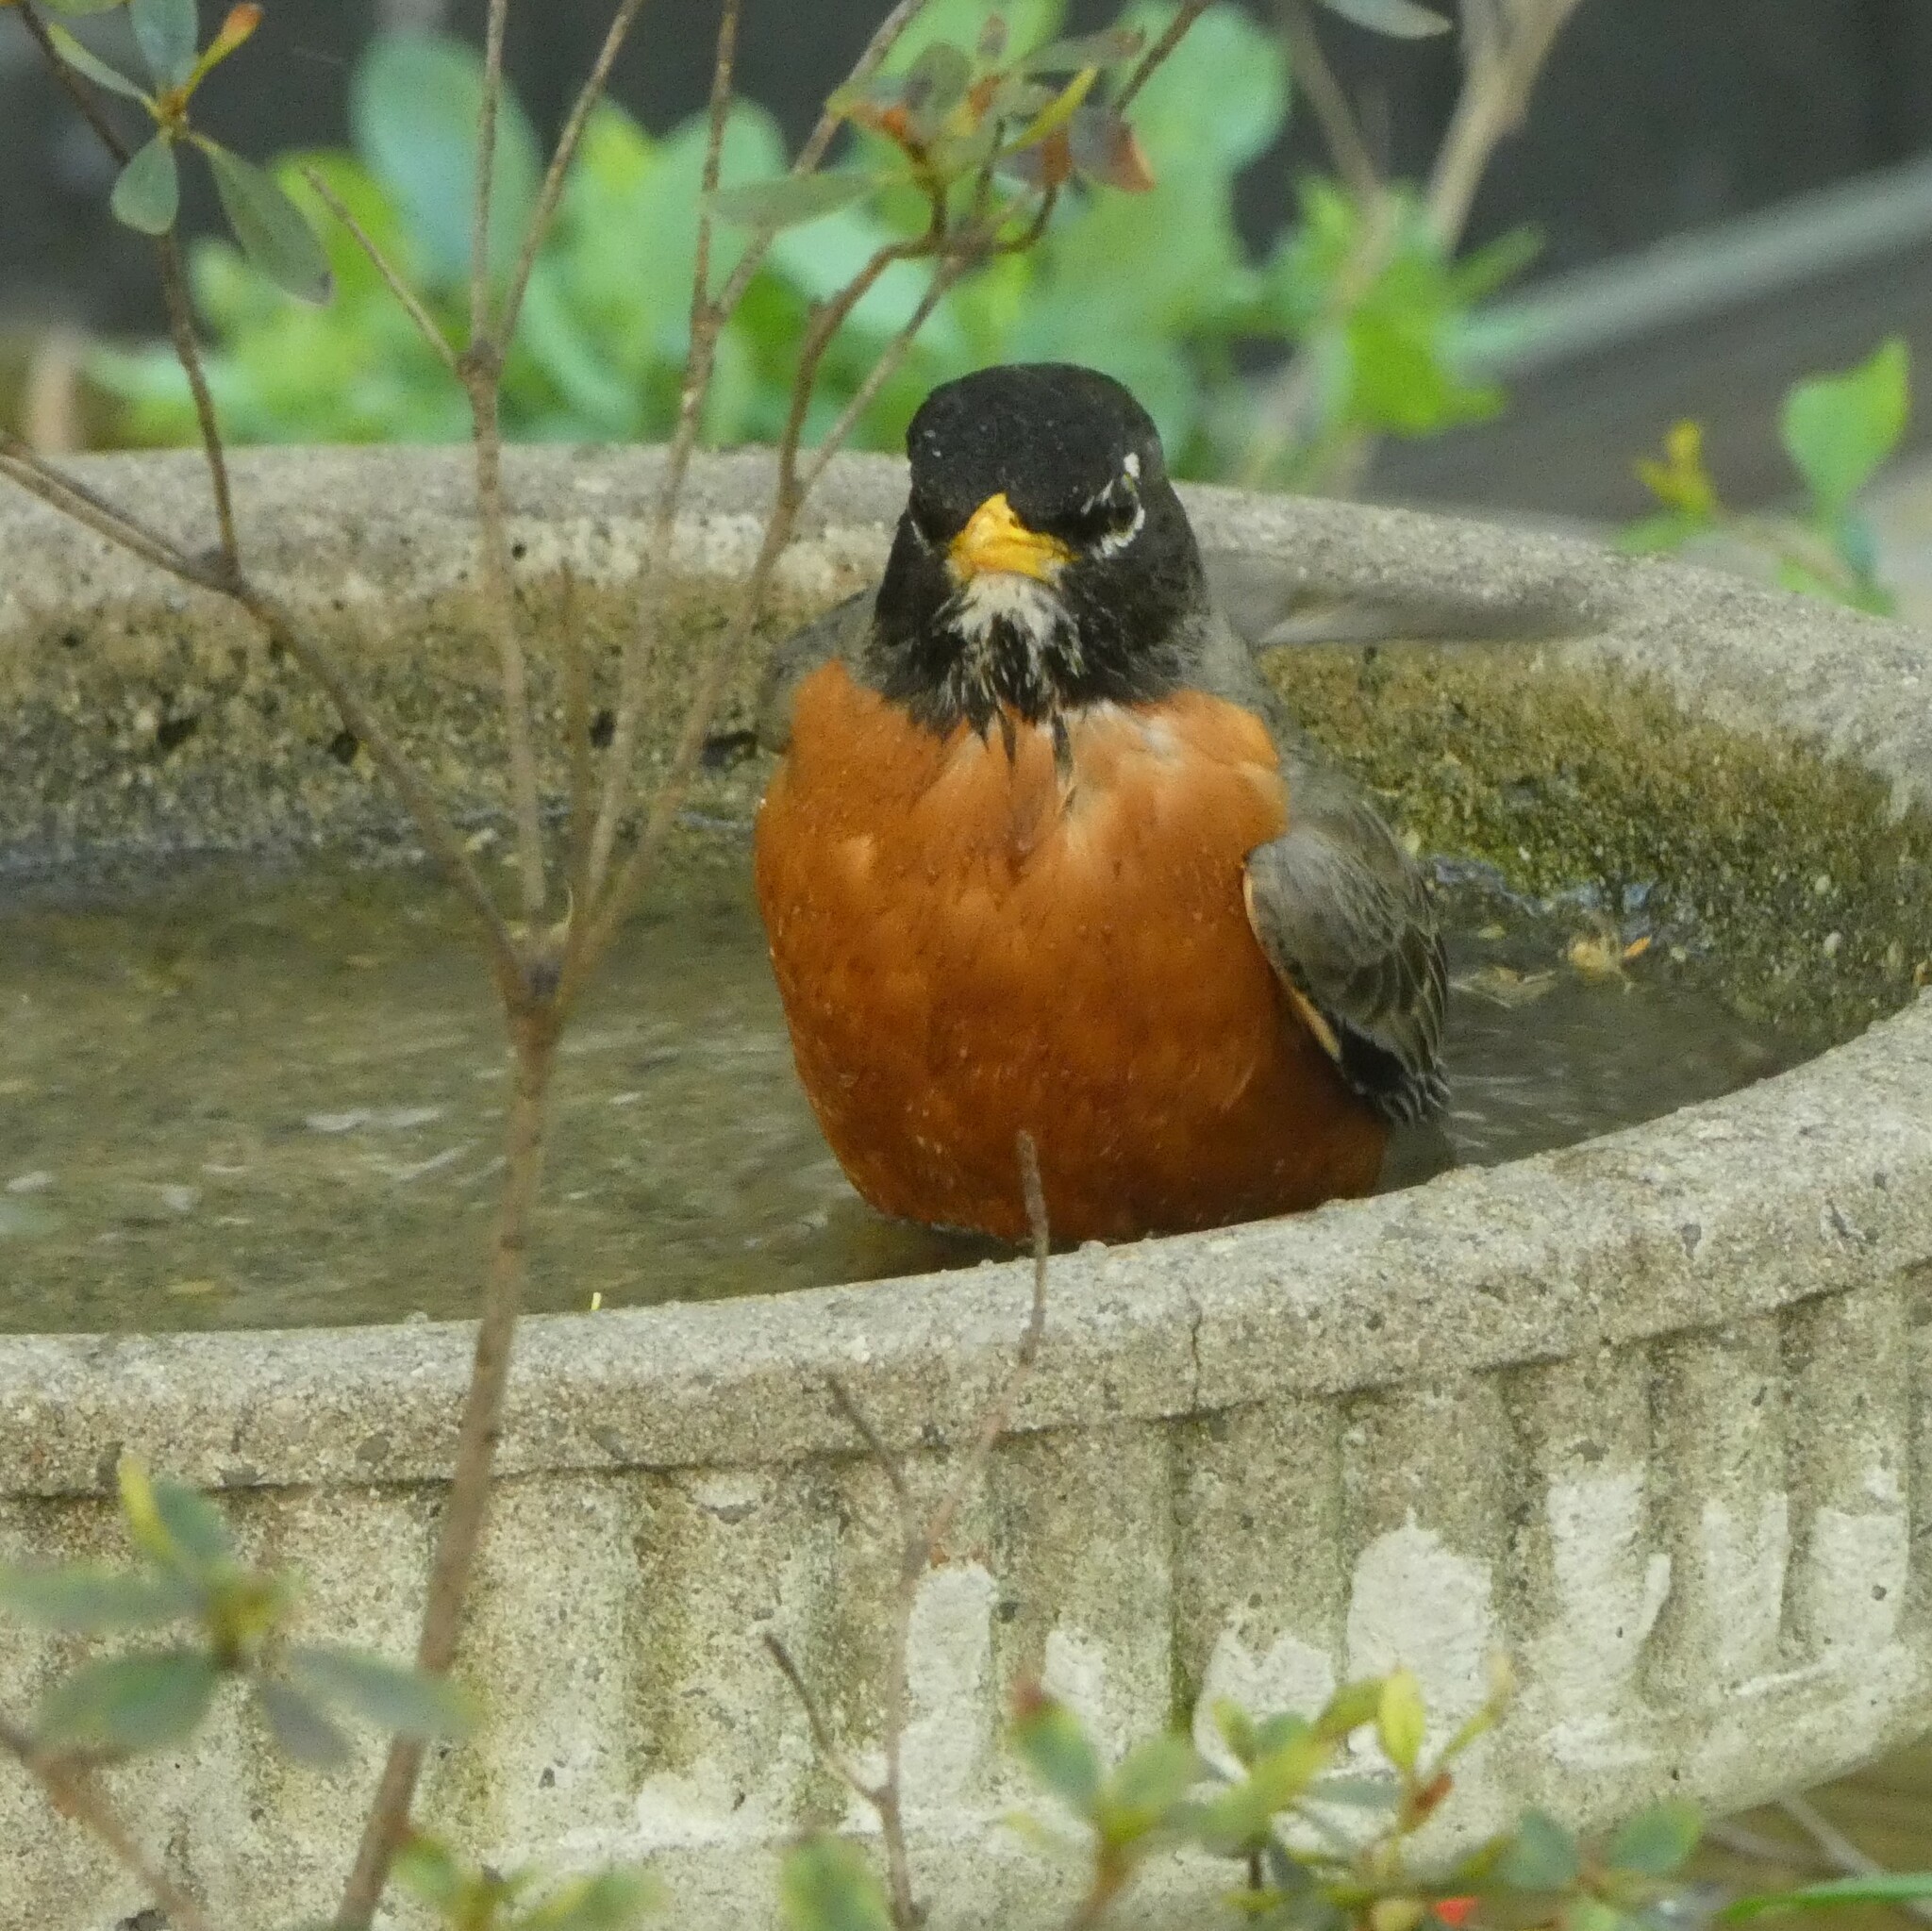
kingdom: Animalia
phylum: Chordata
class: Aves
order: Passeriformes
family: Turdidae
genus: Turdus
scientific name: Turdus migratorius
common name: American robin
